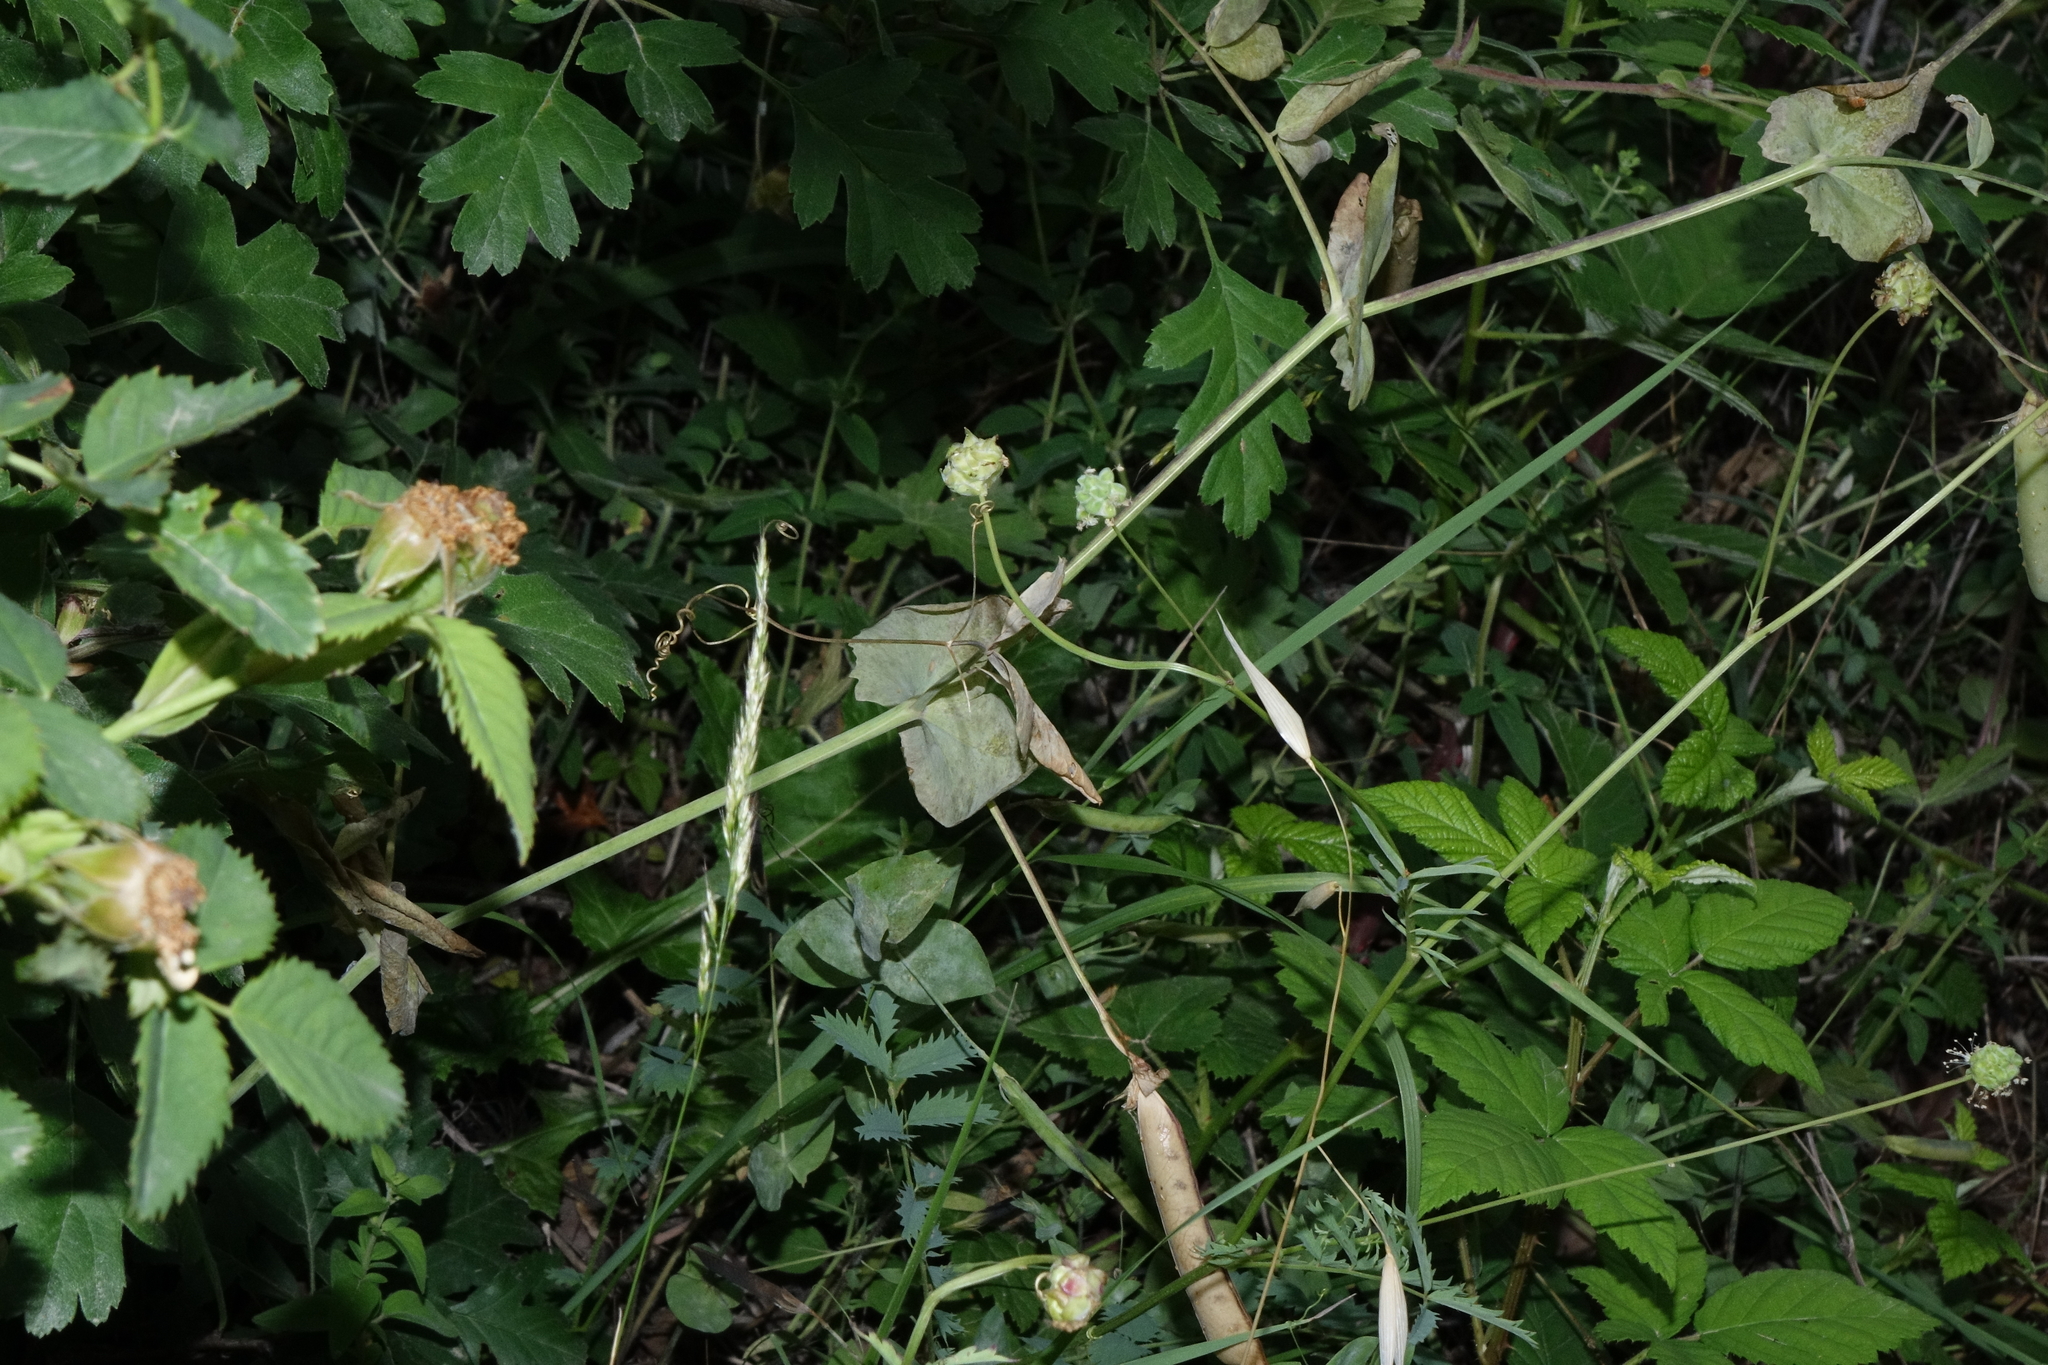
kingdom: Plantae
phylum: Tracheophyta
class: Magnoliopsida
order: Fabales
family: Fabaceae
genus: Lathyrus
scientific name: Lathyrus oleraceus
